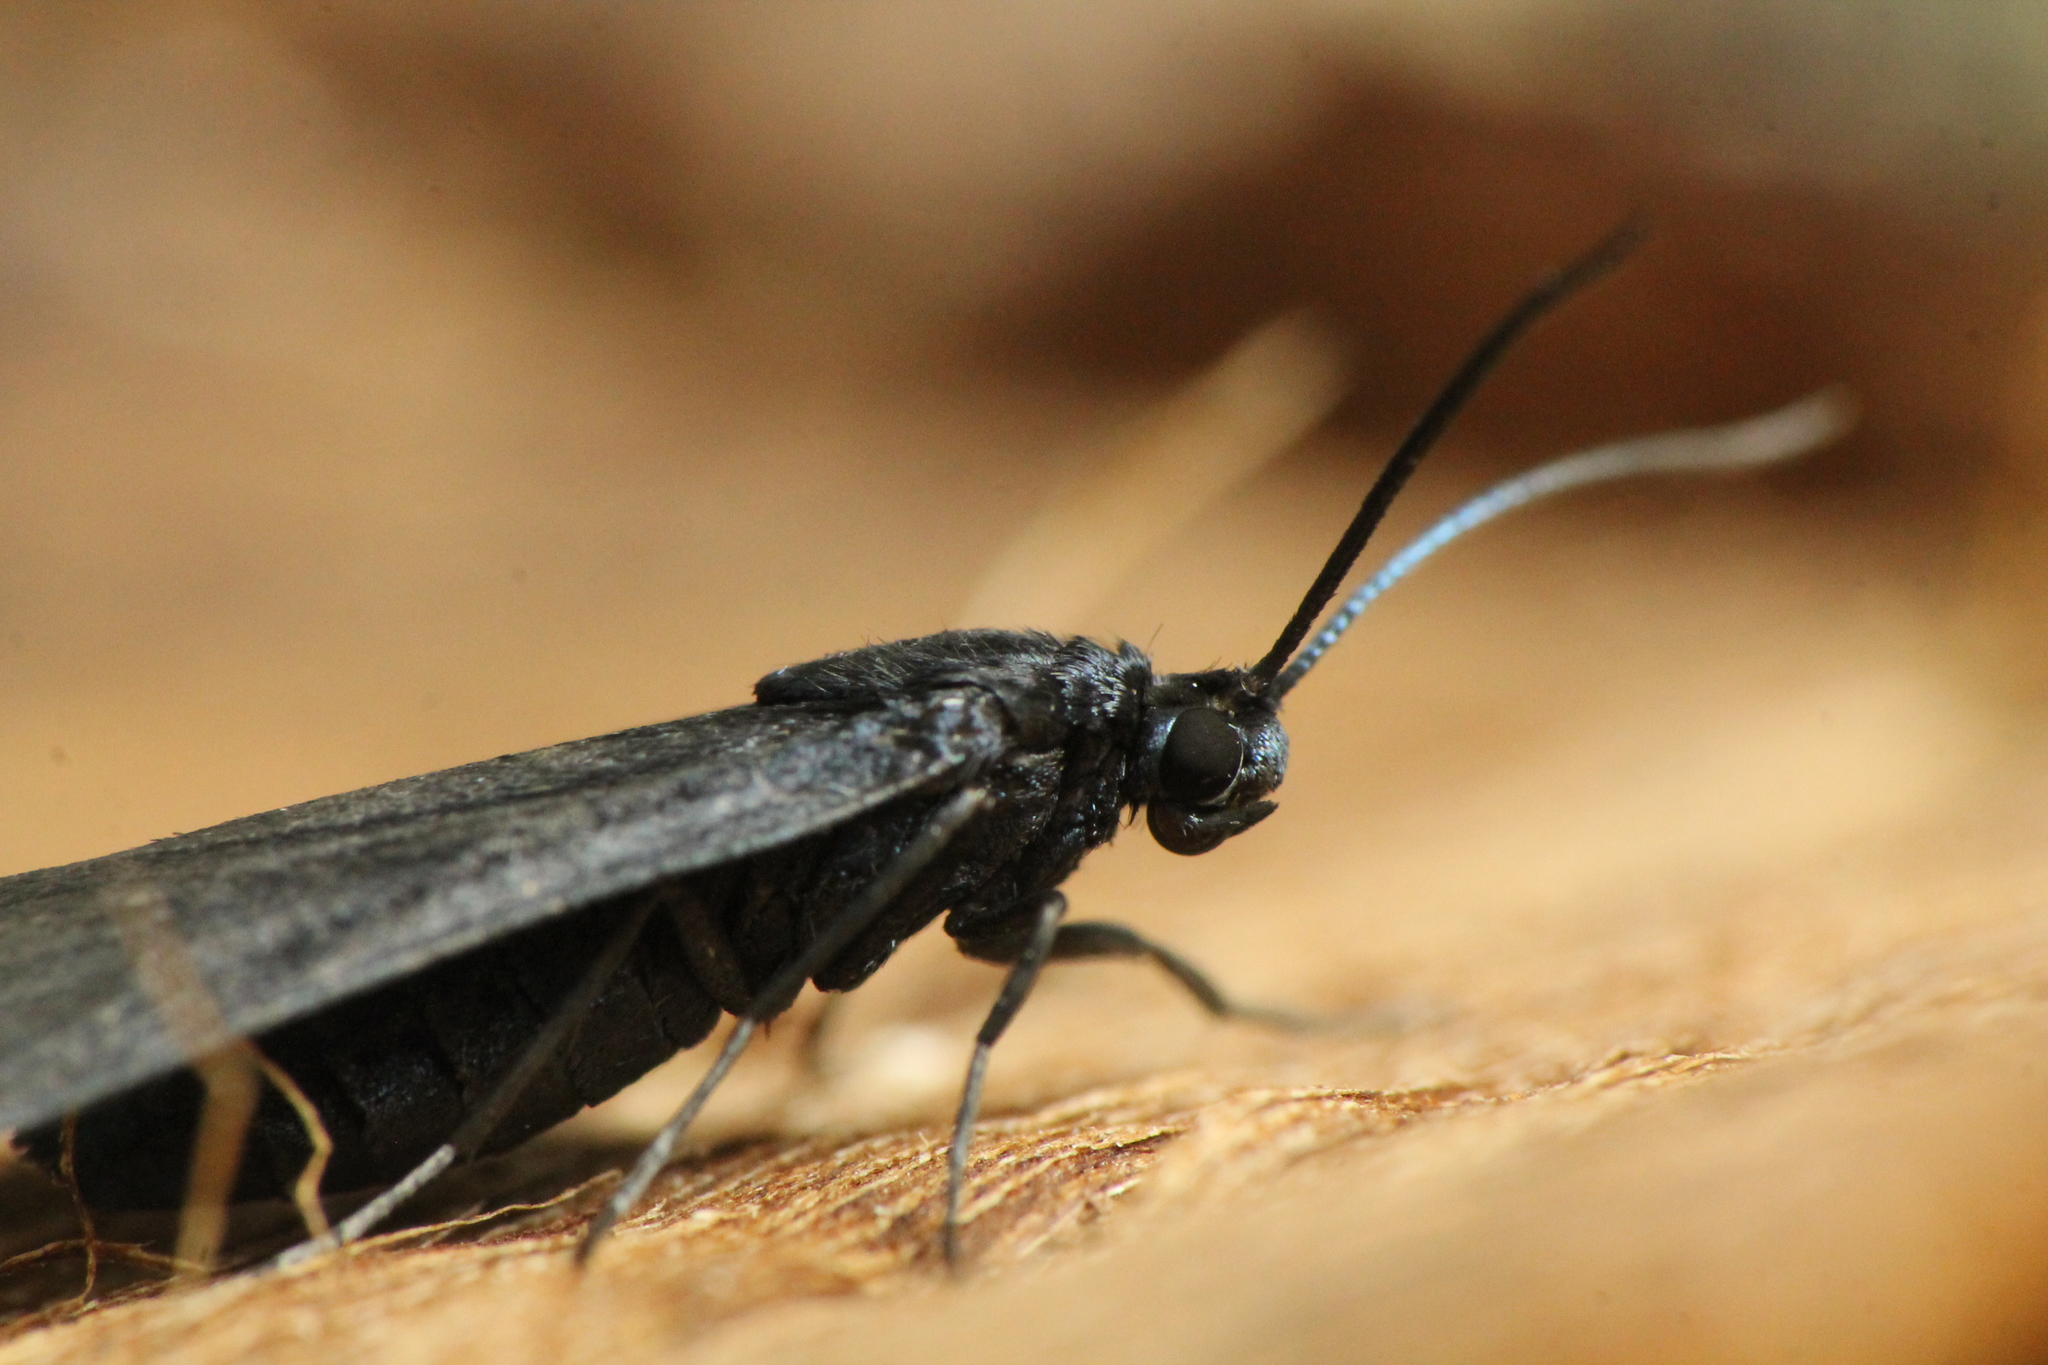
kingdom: Animalia
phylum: Arthropoda
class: Insecta
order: Lepidoptera
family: Zygaenidae
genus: Artona
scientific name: Artona martini
